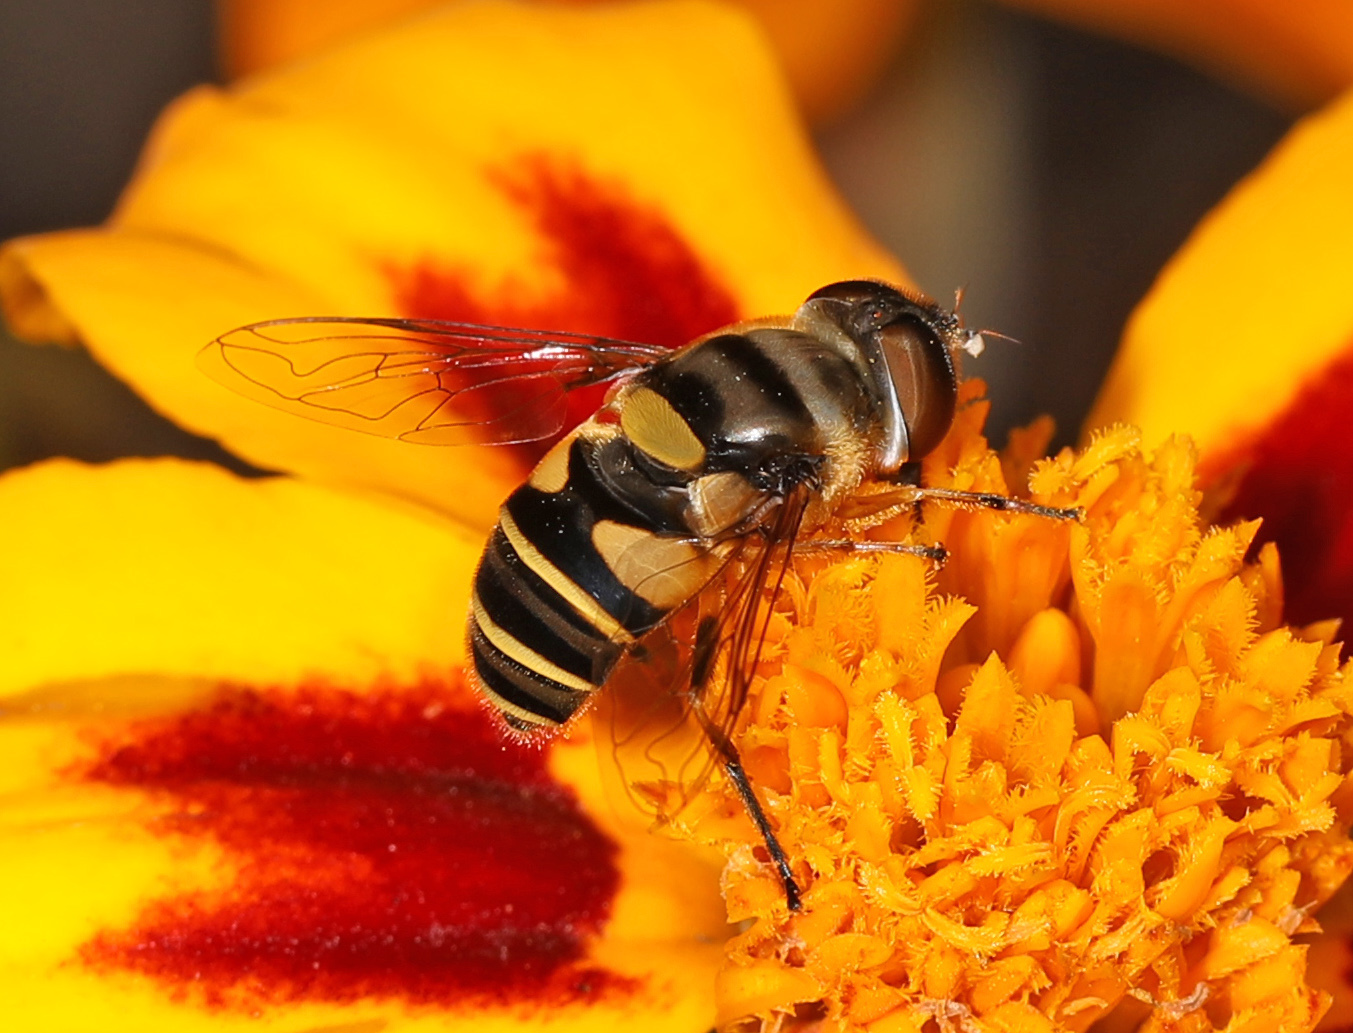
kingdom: Animalia
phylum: Arthropoda
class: Insecta
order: Diptera
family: Syrphidae
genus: Eristalis
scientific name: Eristalis transversa
